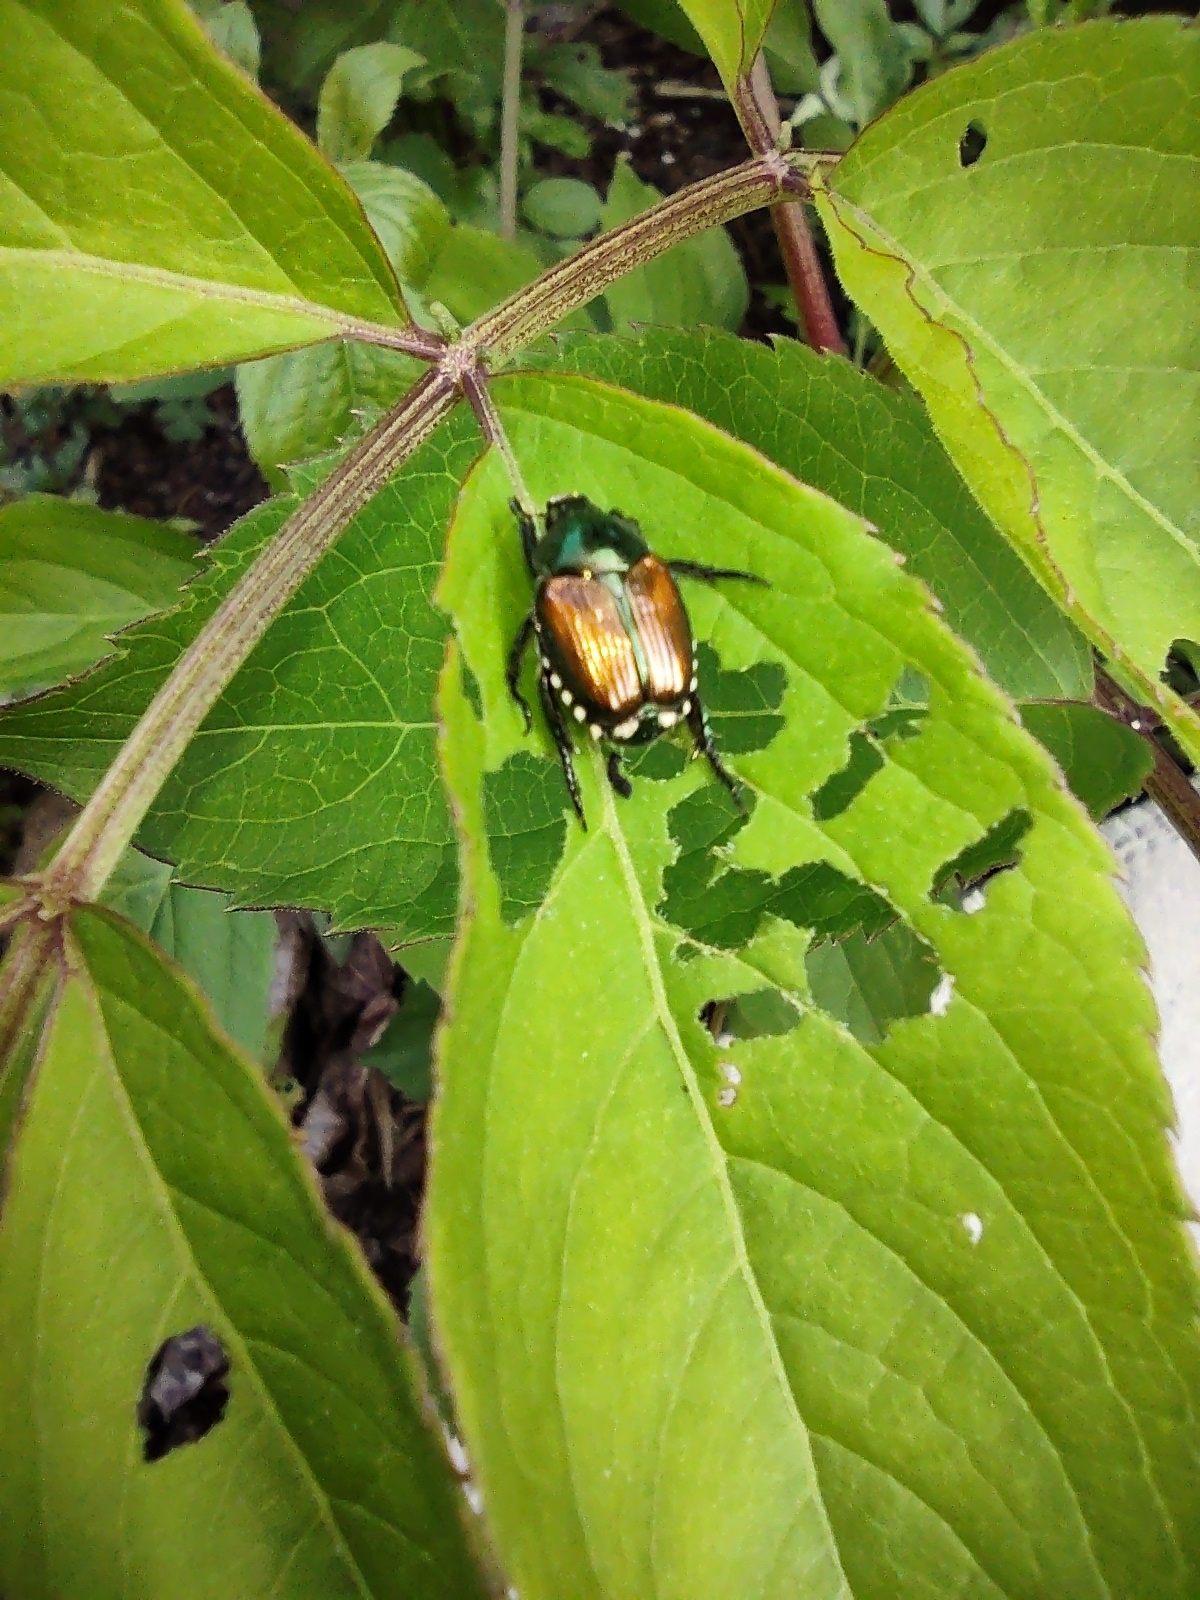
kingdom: Animalia
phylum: Arthropoda
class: Insecta
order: Coleoptera
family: Scarabaeidae
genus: Popillia
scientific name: Popillia japonica
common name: Japanese beetle
